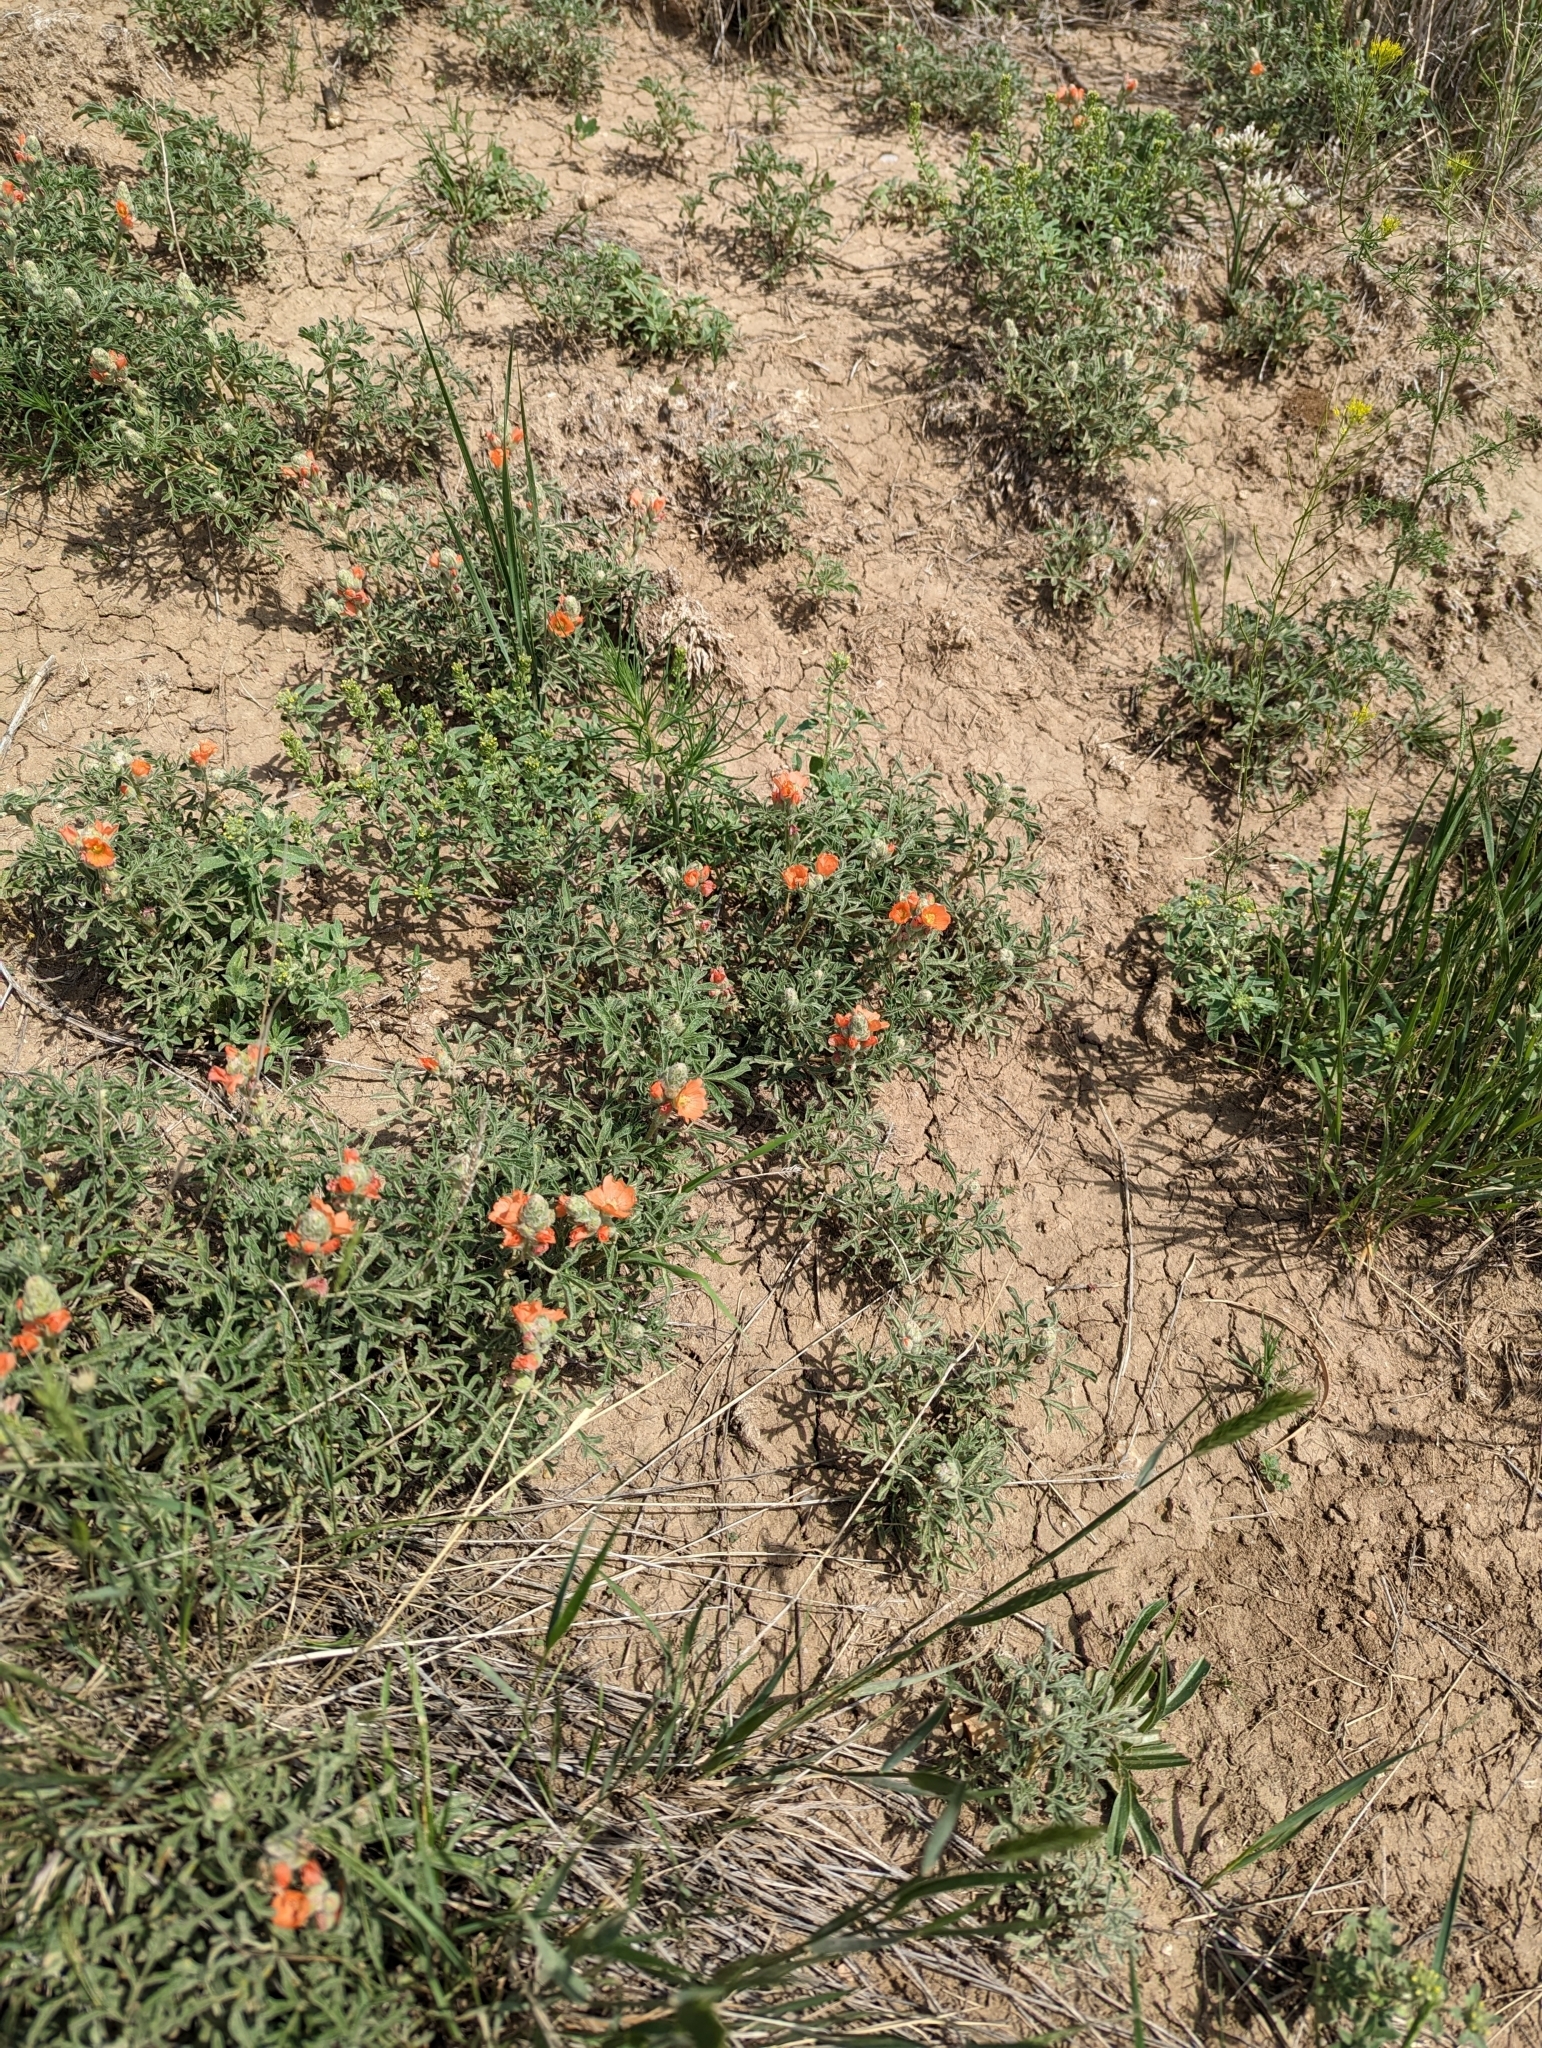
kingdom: Plantae
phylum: Tracheophyta
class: Magnoliopsida
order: Malvales
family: Malvaceae
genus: Sphaeralcea
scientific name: Sphaeralcea coccinea
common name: Moss-rose
